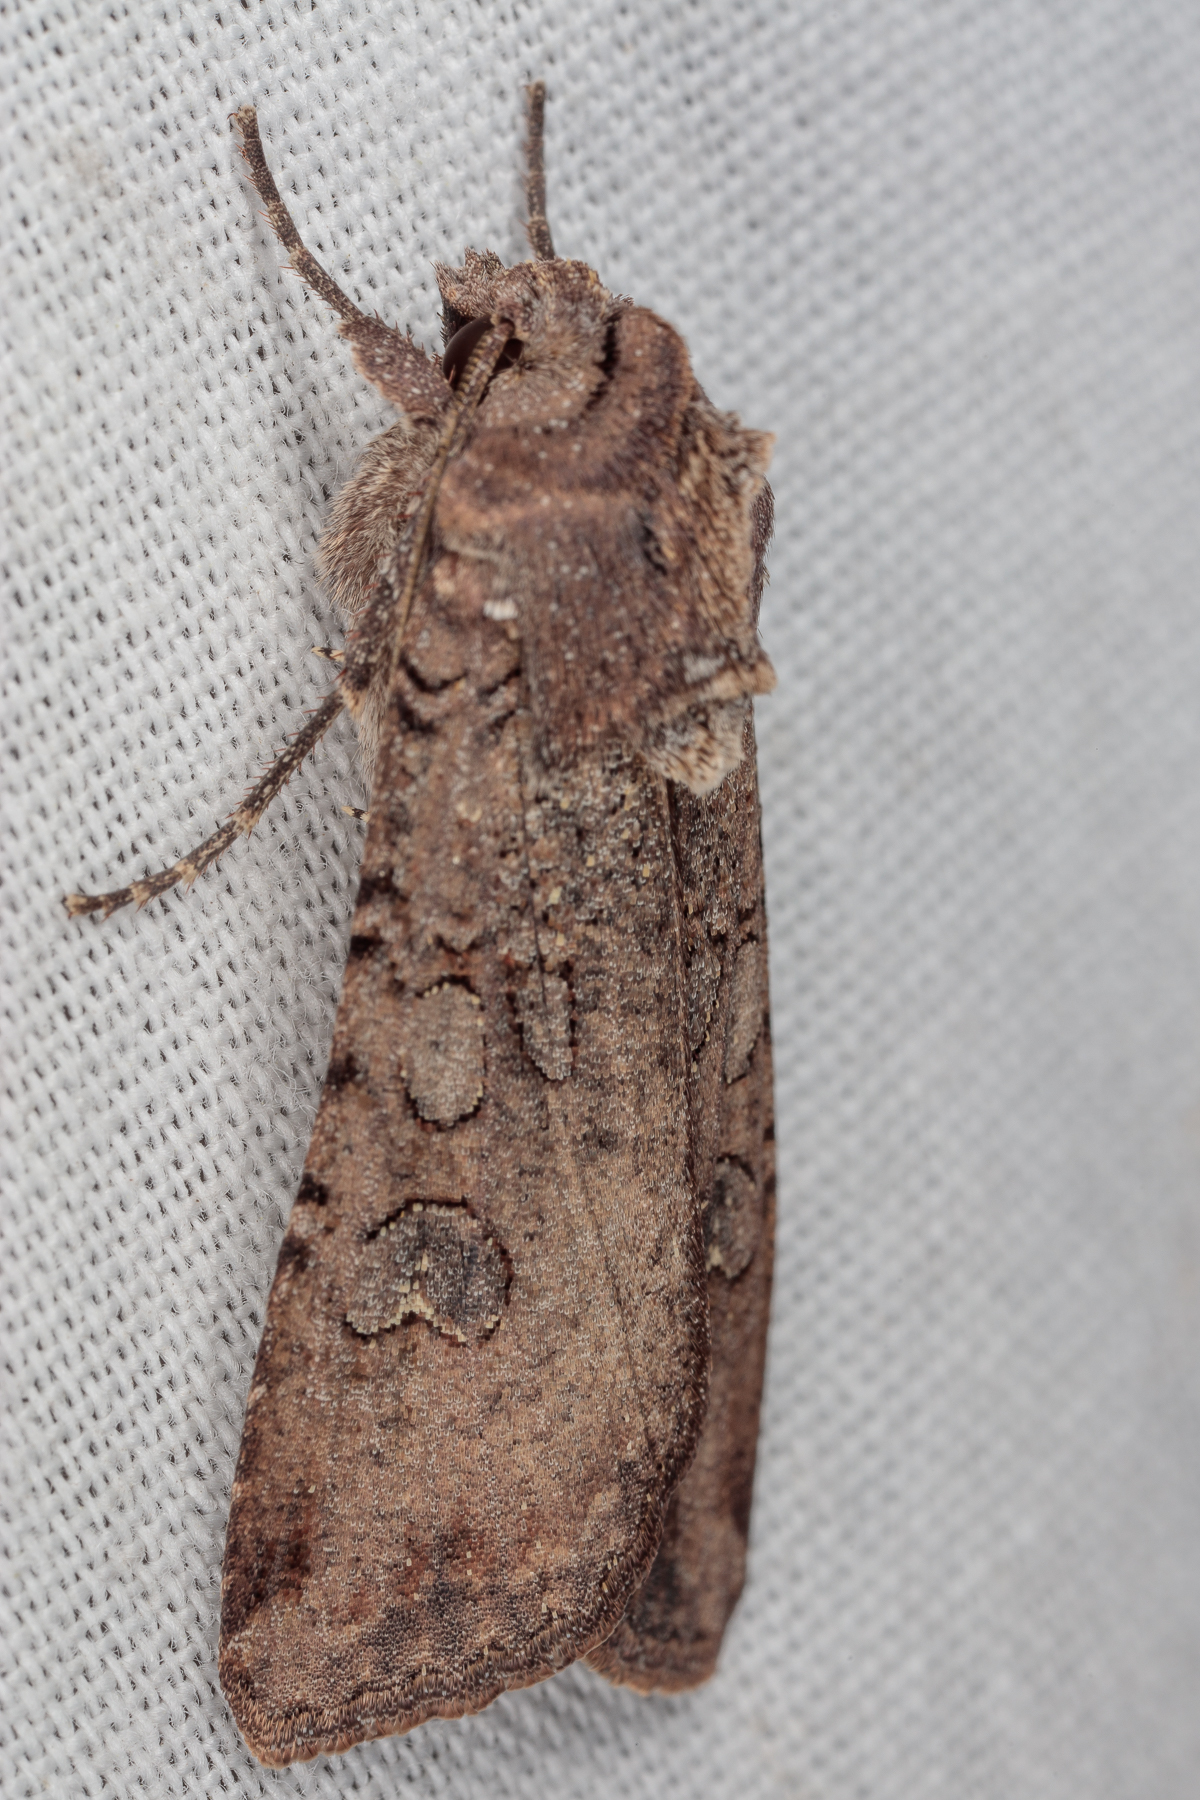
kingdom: Animalia
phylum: Arthropoda
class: Insecta
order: Lepidoptera
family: Noctuidae
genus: Peridroma
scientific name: Peridroma saucia
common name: Pearly underwing
